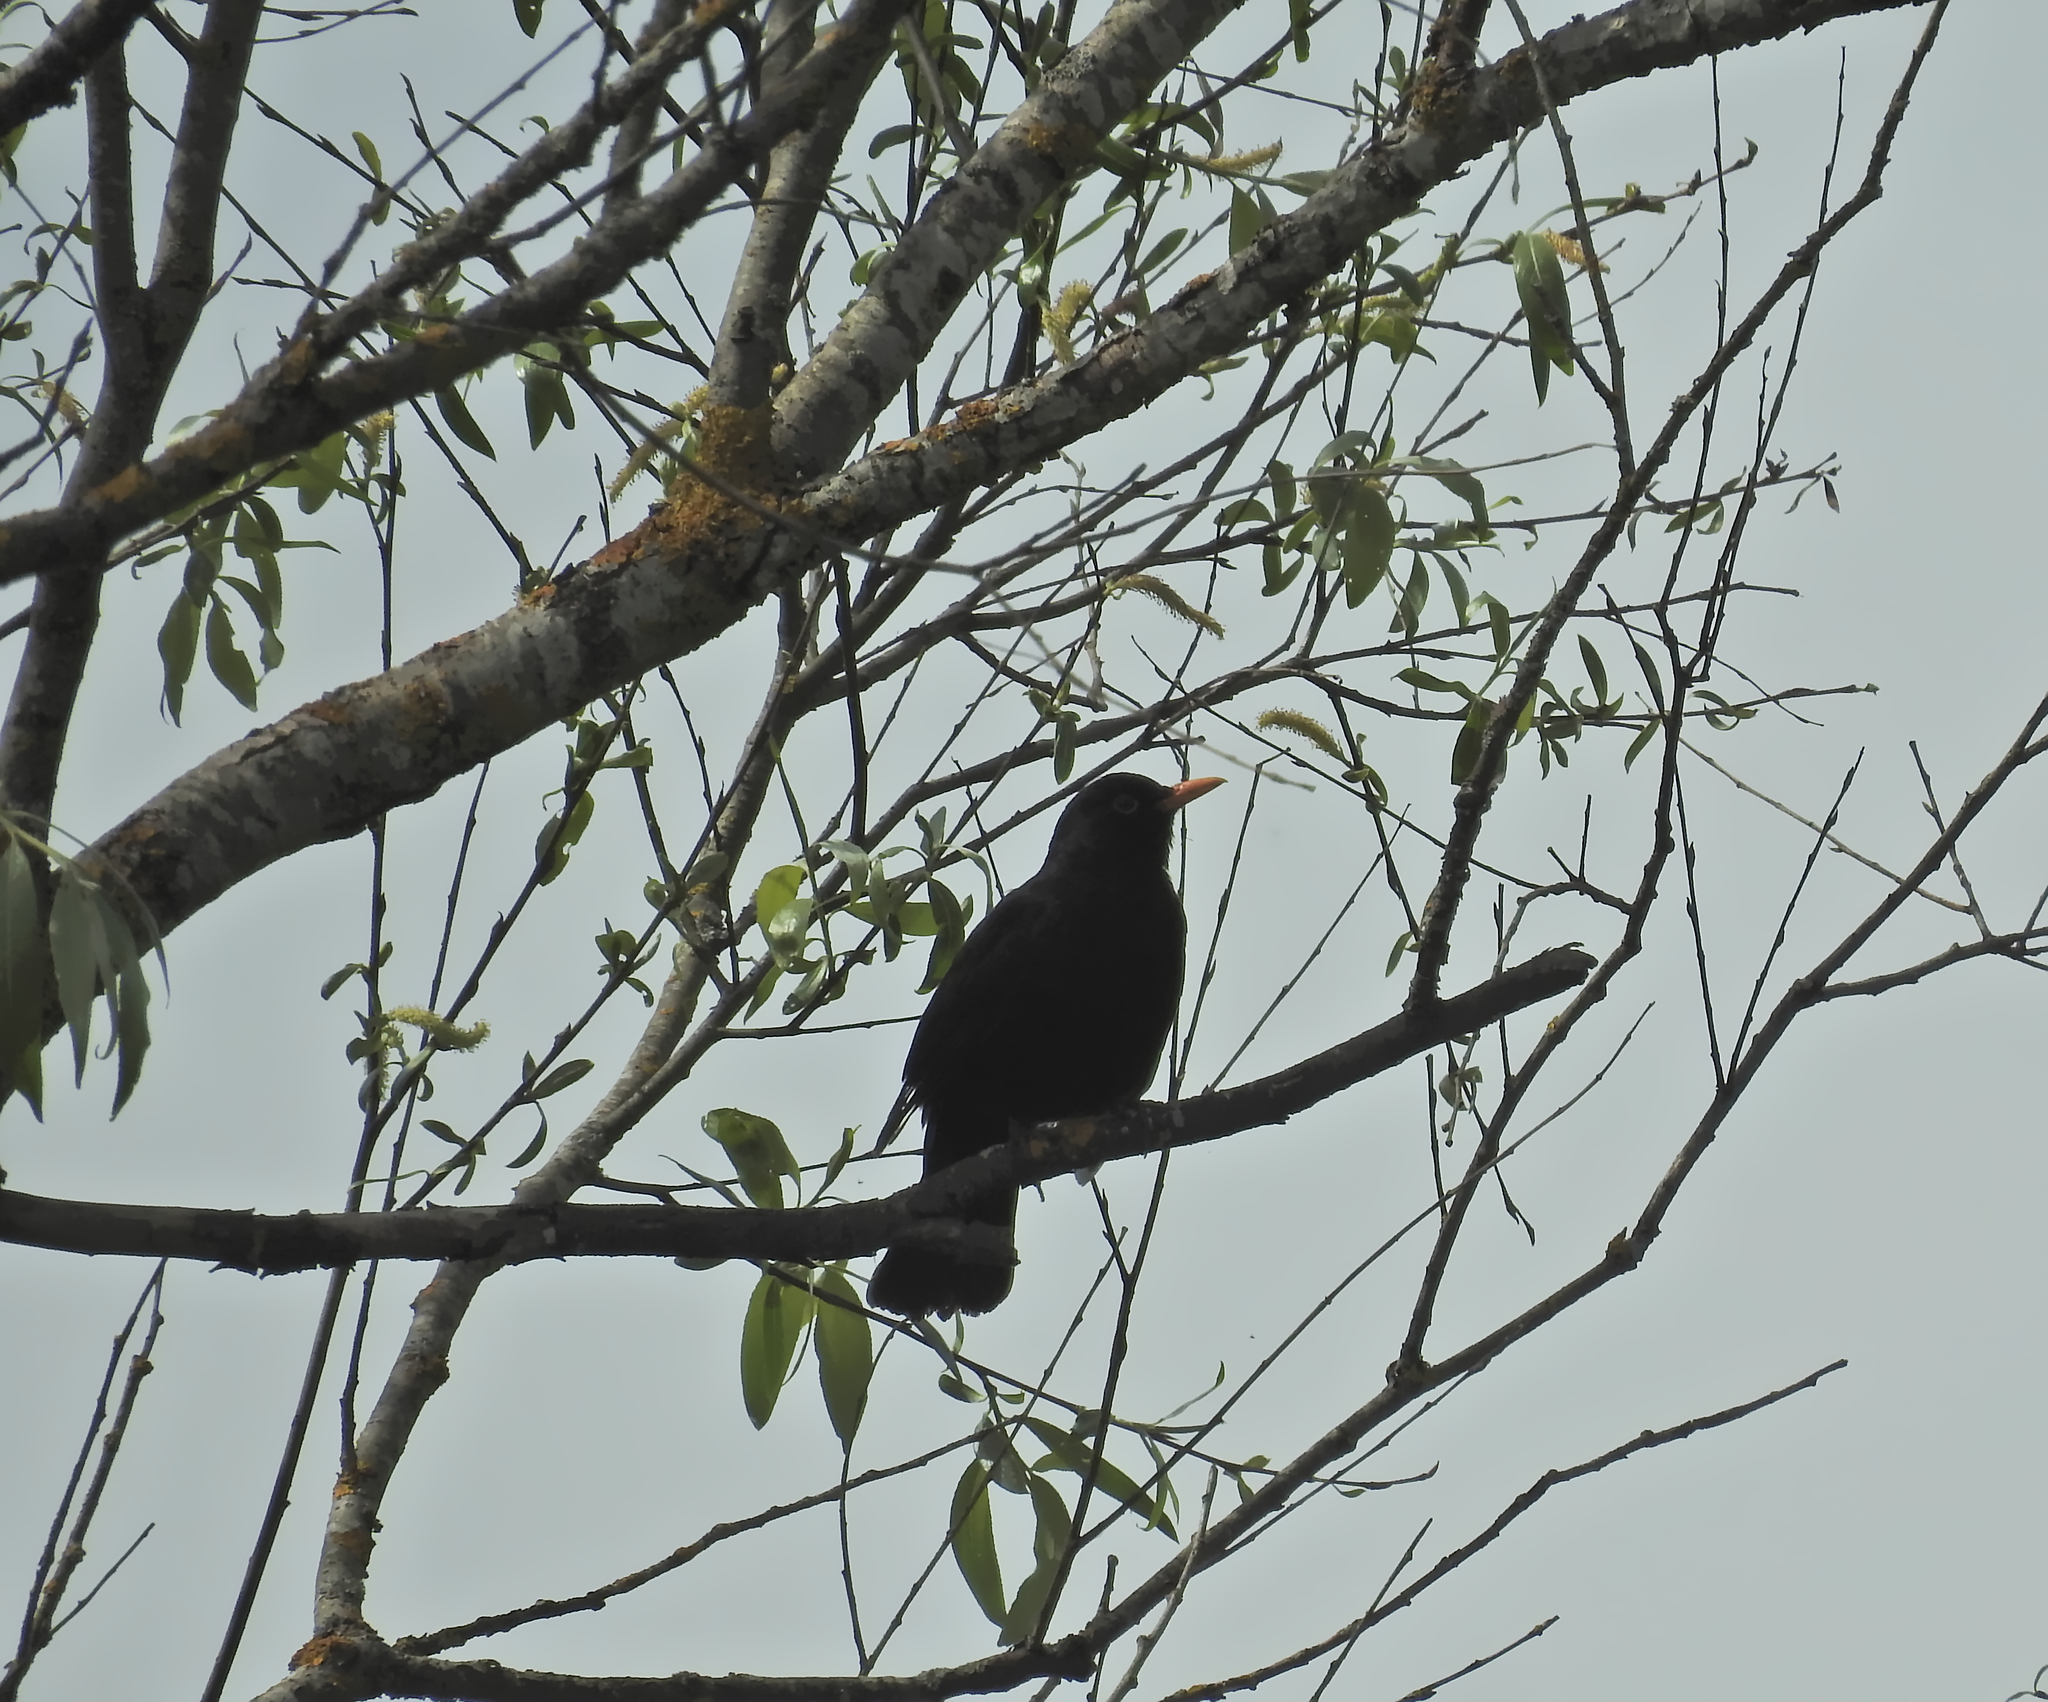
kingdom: Animalia
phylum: Chordata
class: Aves
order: Passeriformes
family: Turdidae
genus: Turdus
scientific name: Turdus merula
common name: Common blackbird
